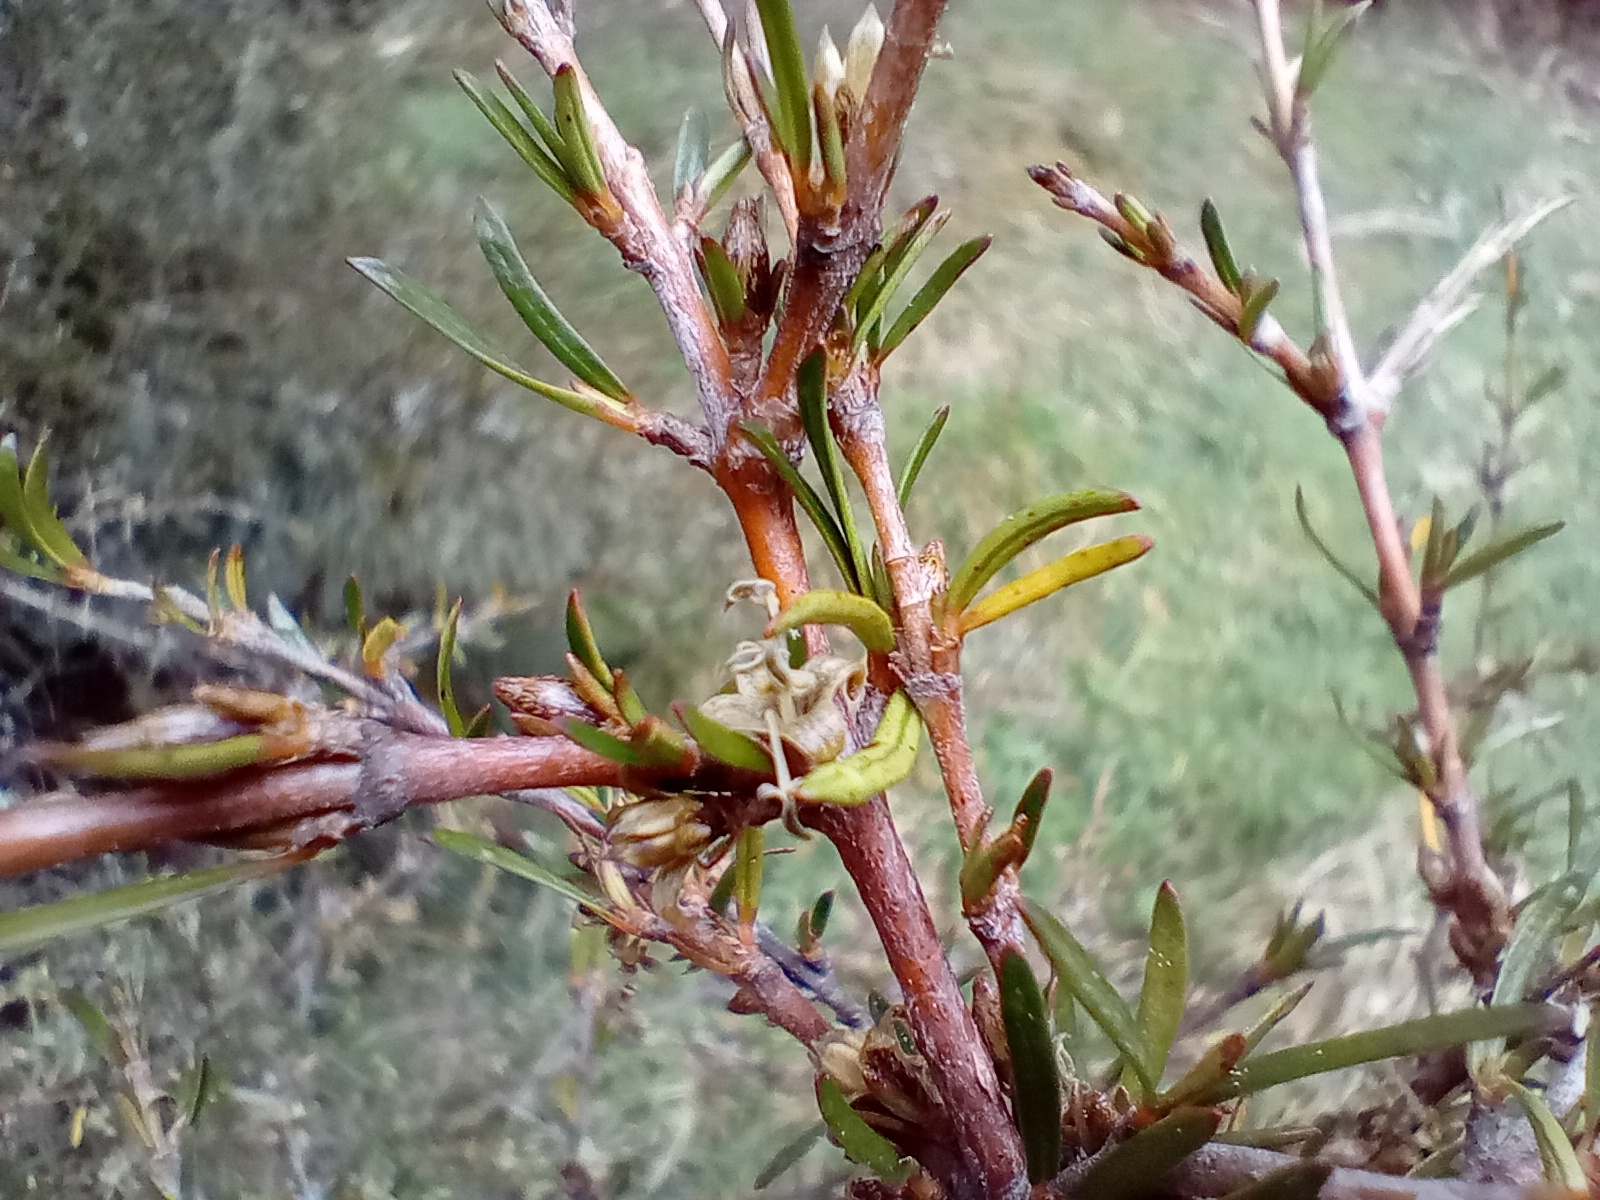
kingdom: Plantae
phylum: Tracheophyta
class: Magnoliopsida
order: Gentianales
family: Rubiaceae
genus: Coprosma
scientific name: Coprosma rugosa
